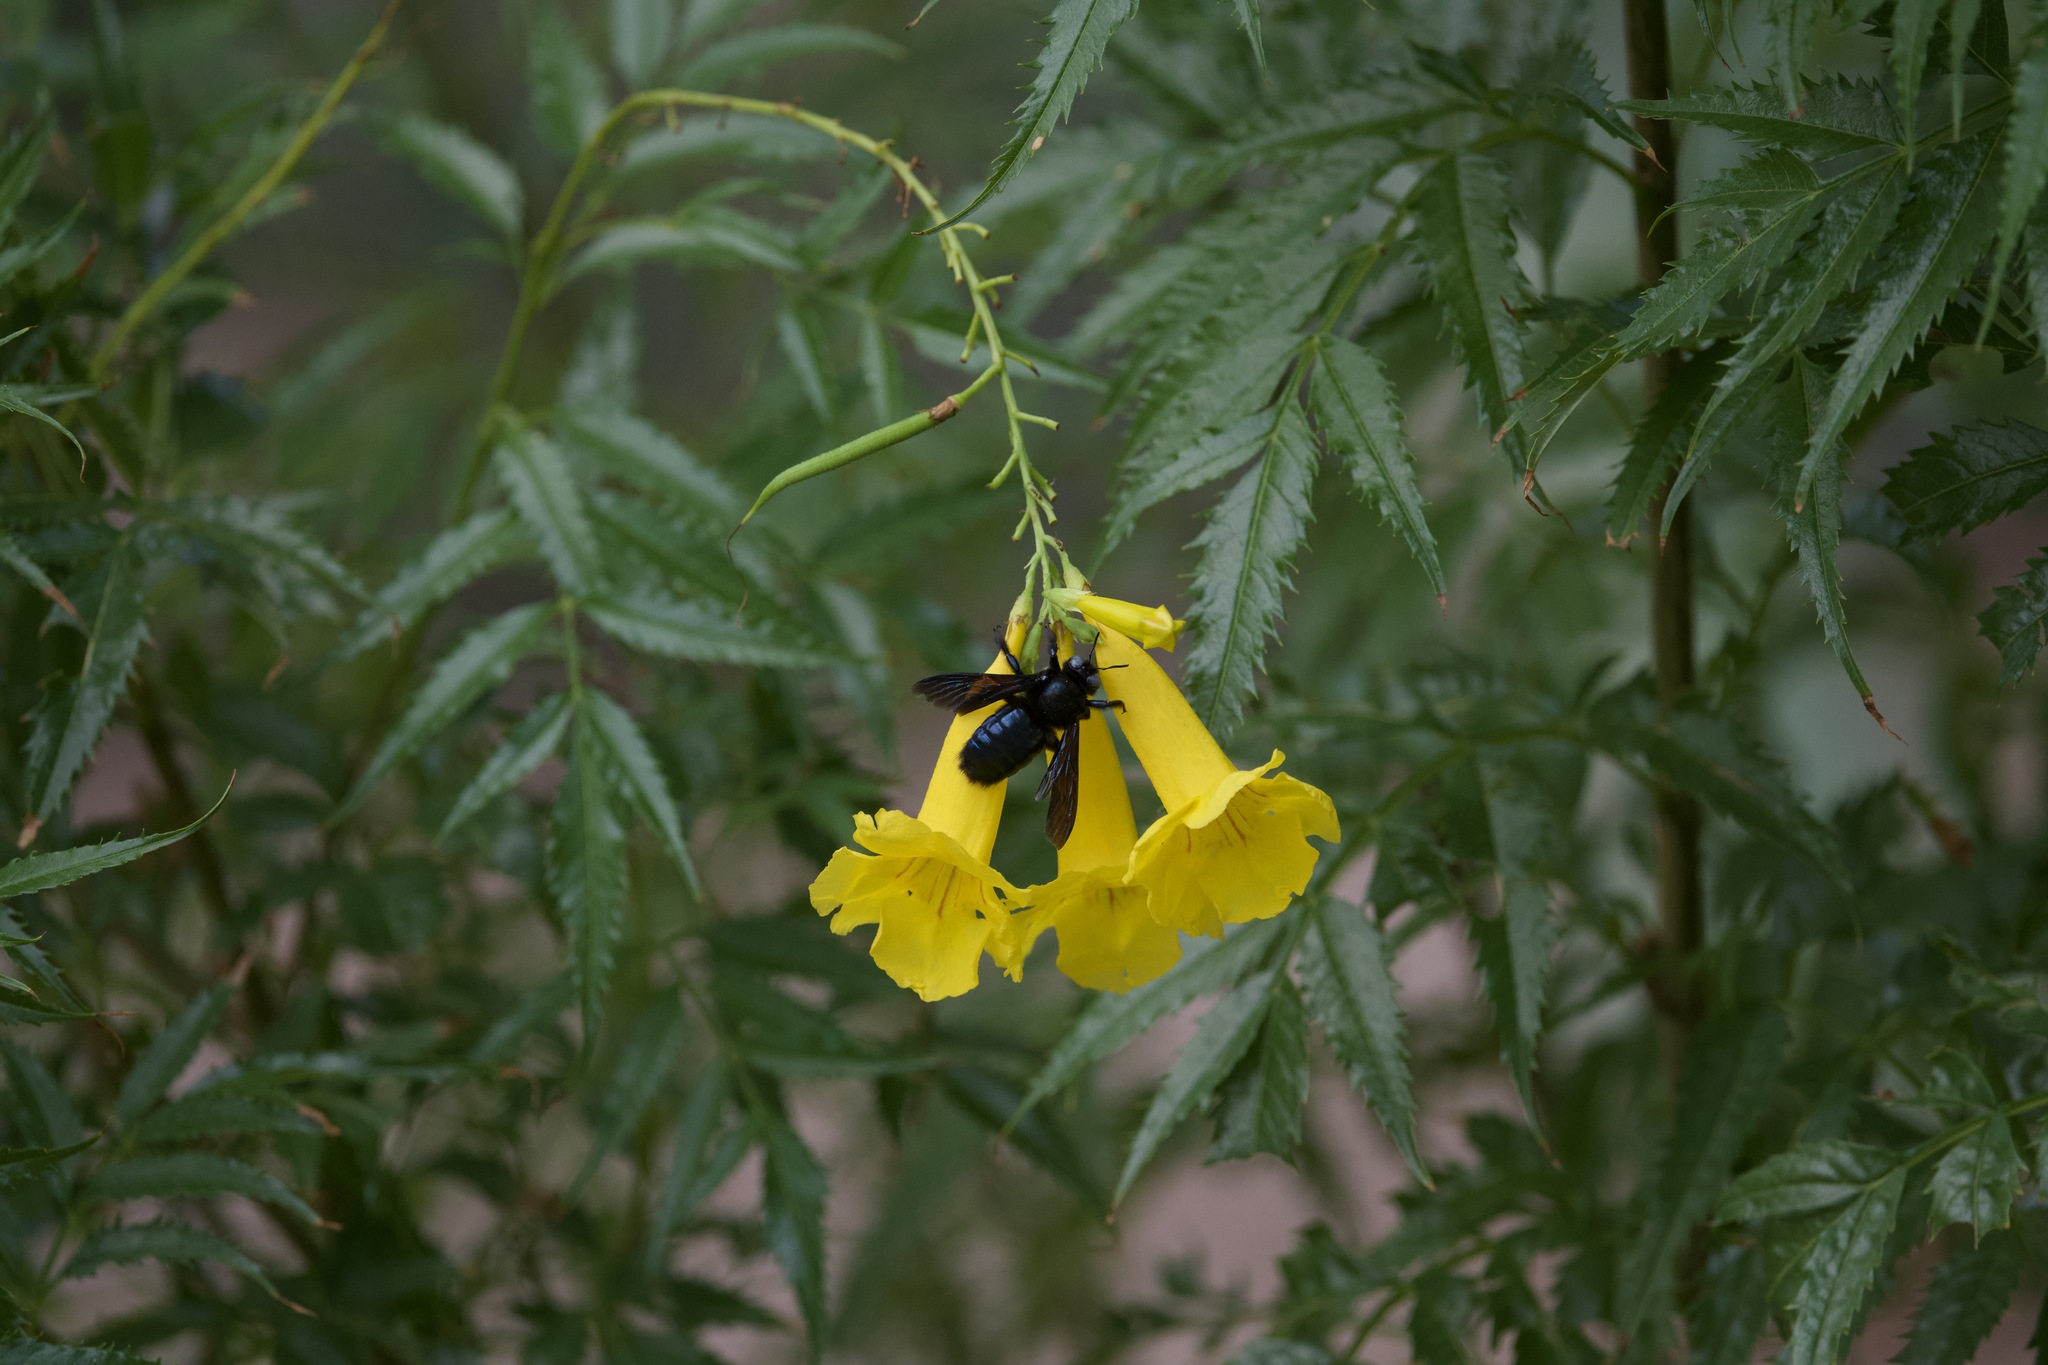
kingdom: Animalia
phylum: Arthropoda
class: Insecta
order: Hymenoptera
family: Apidae
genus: Xylocopa
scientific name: Xylocopa californica
